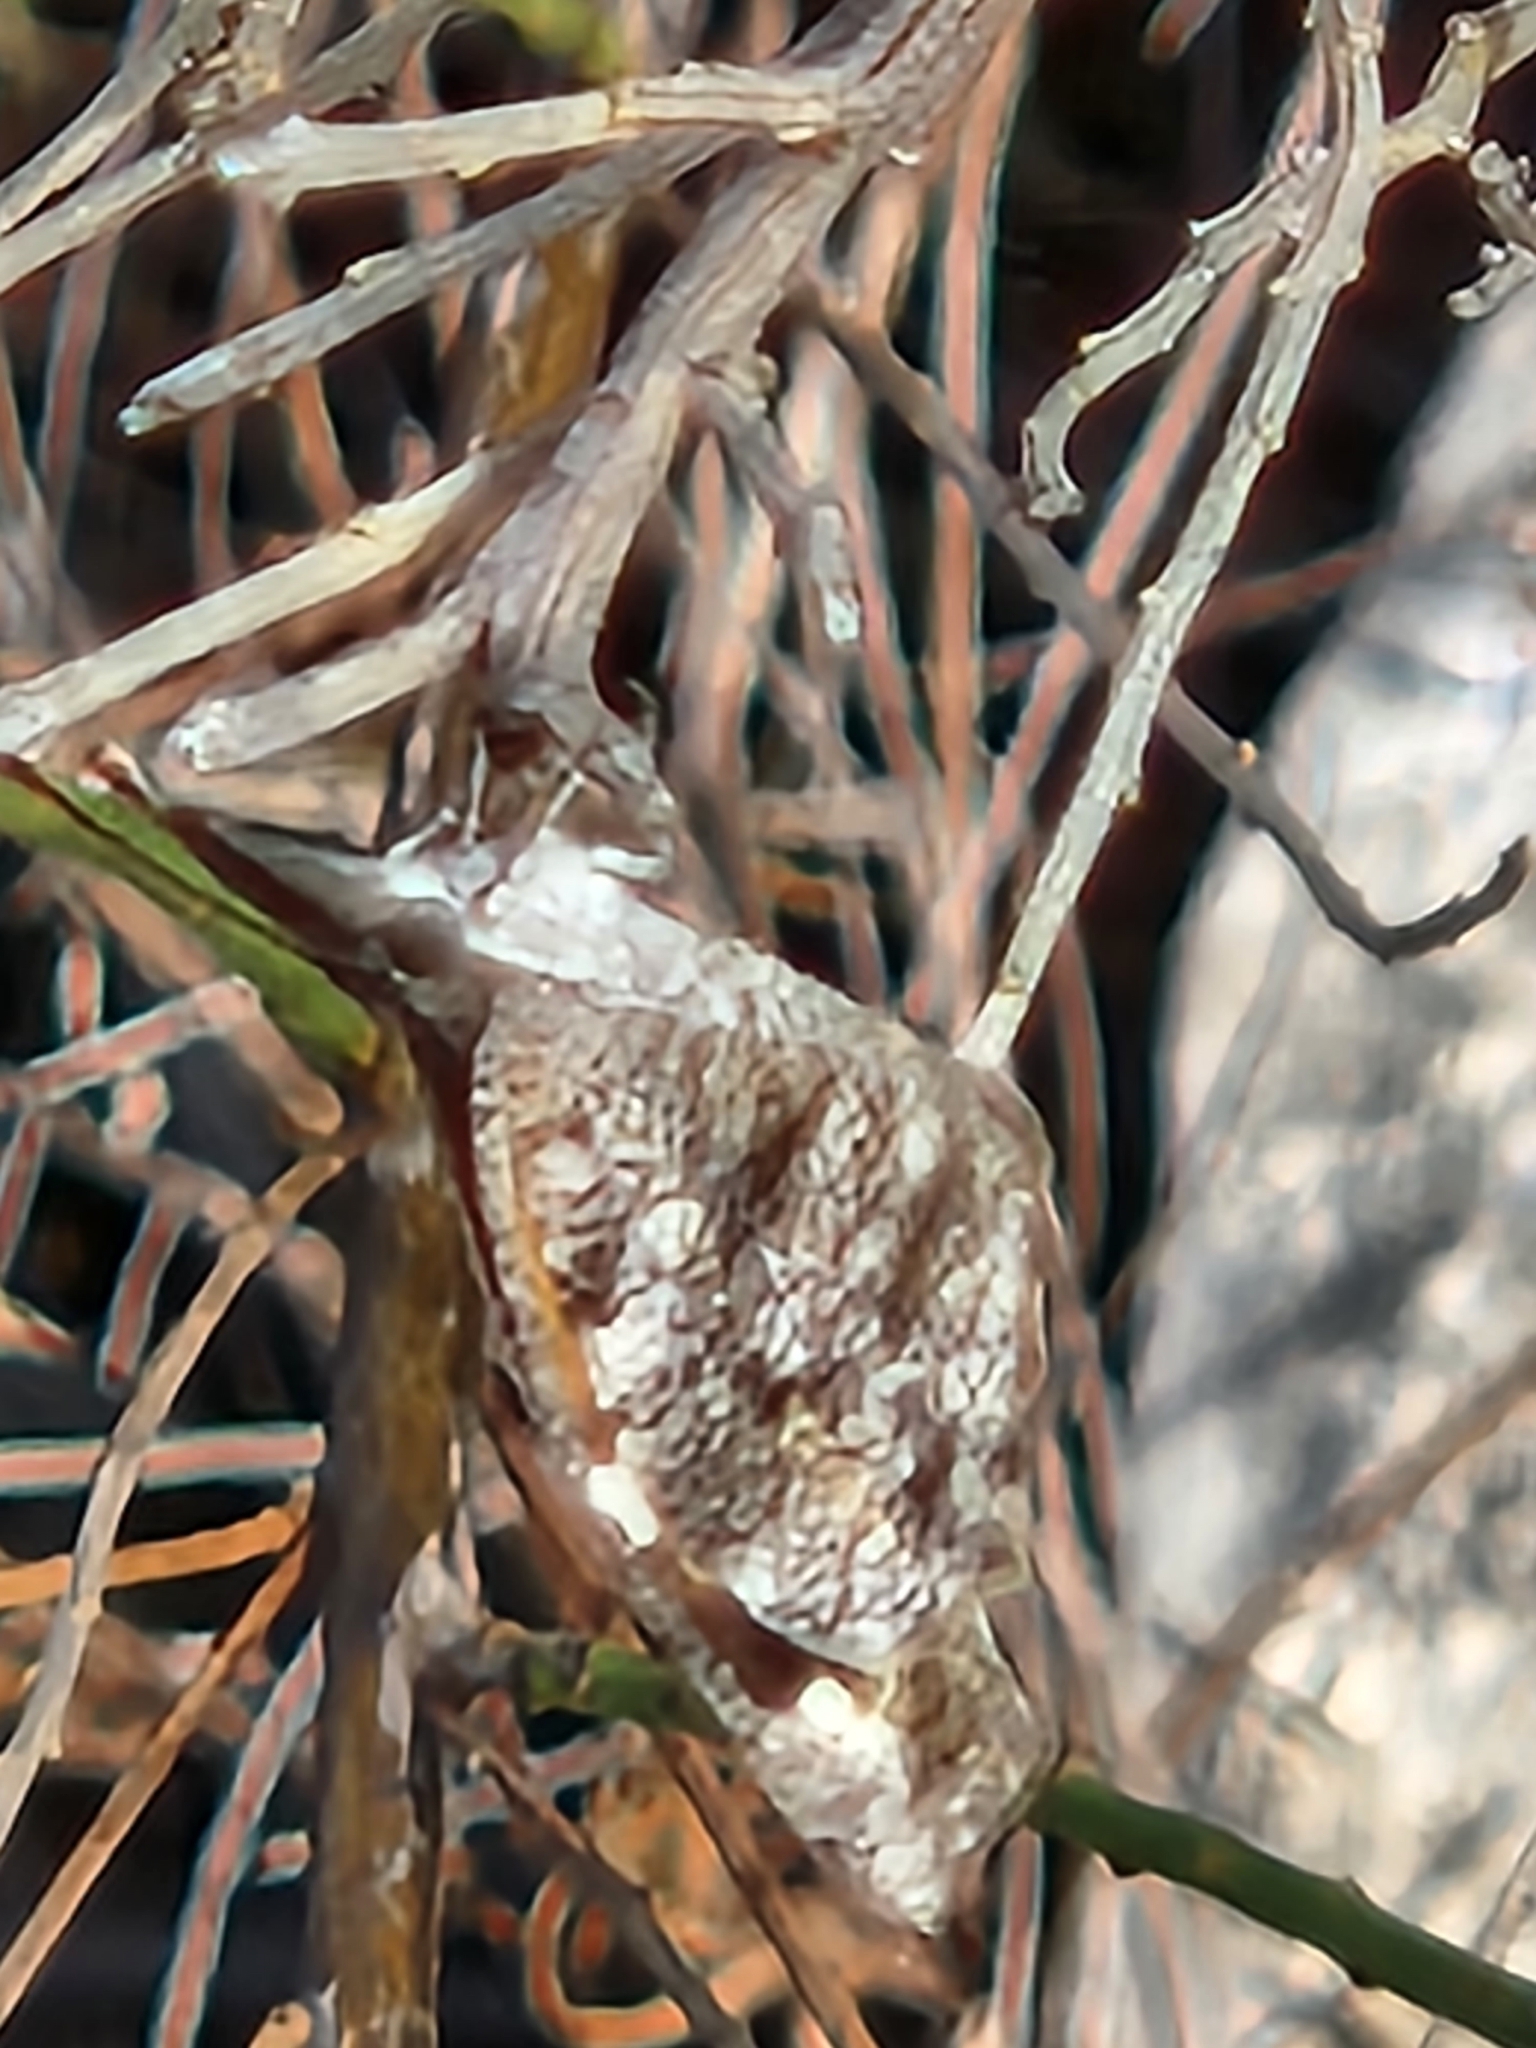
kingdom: Animalia
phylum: Arthropoda
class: Insecta
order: Lepidoptera
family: Nymphalidae
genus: Libytheana
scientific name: Libytheana carinenta
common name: American snout
